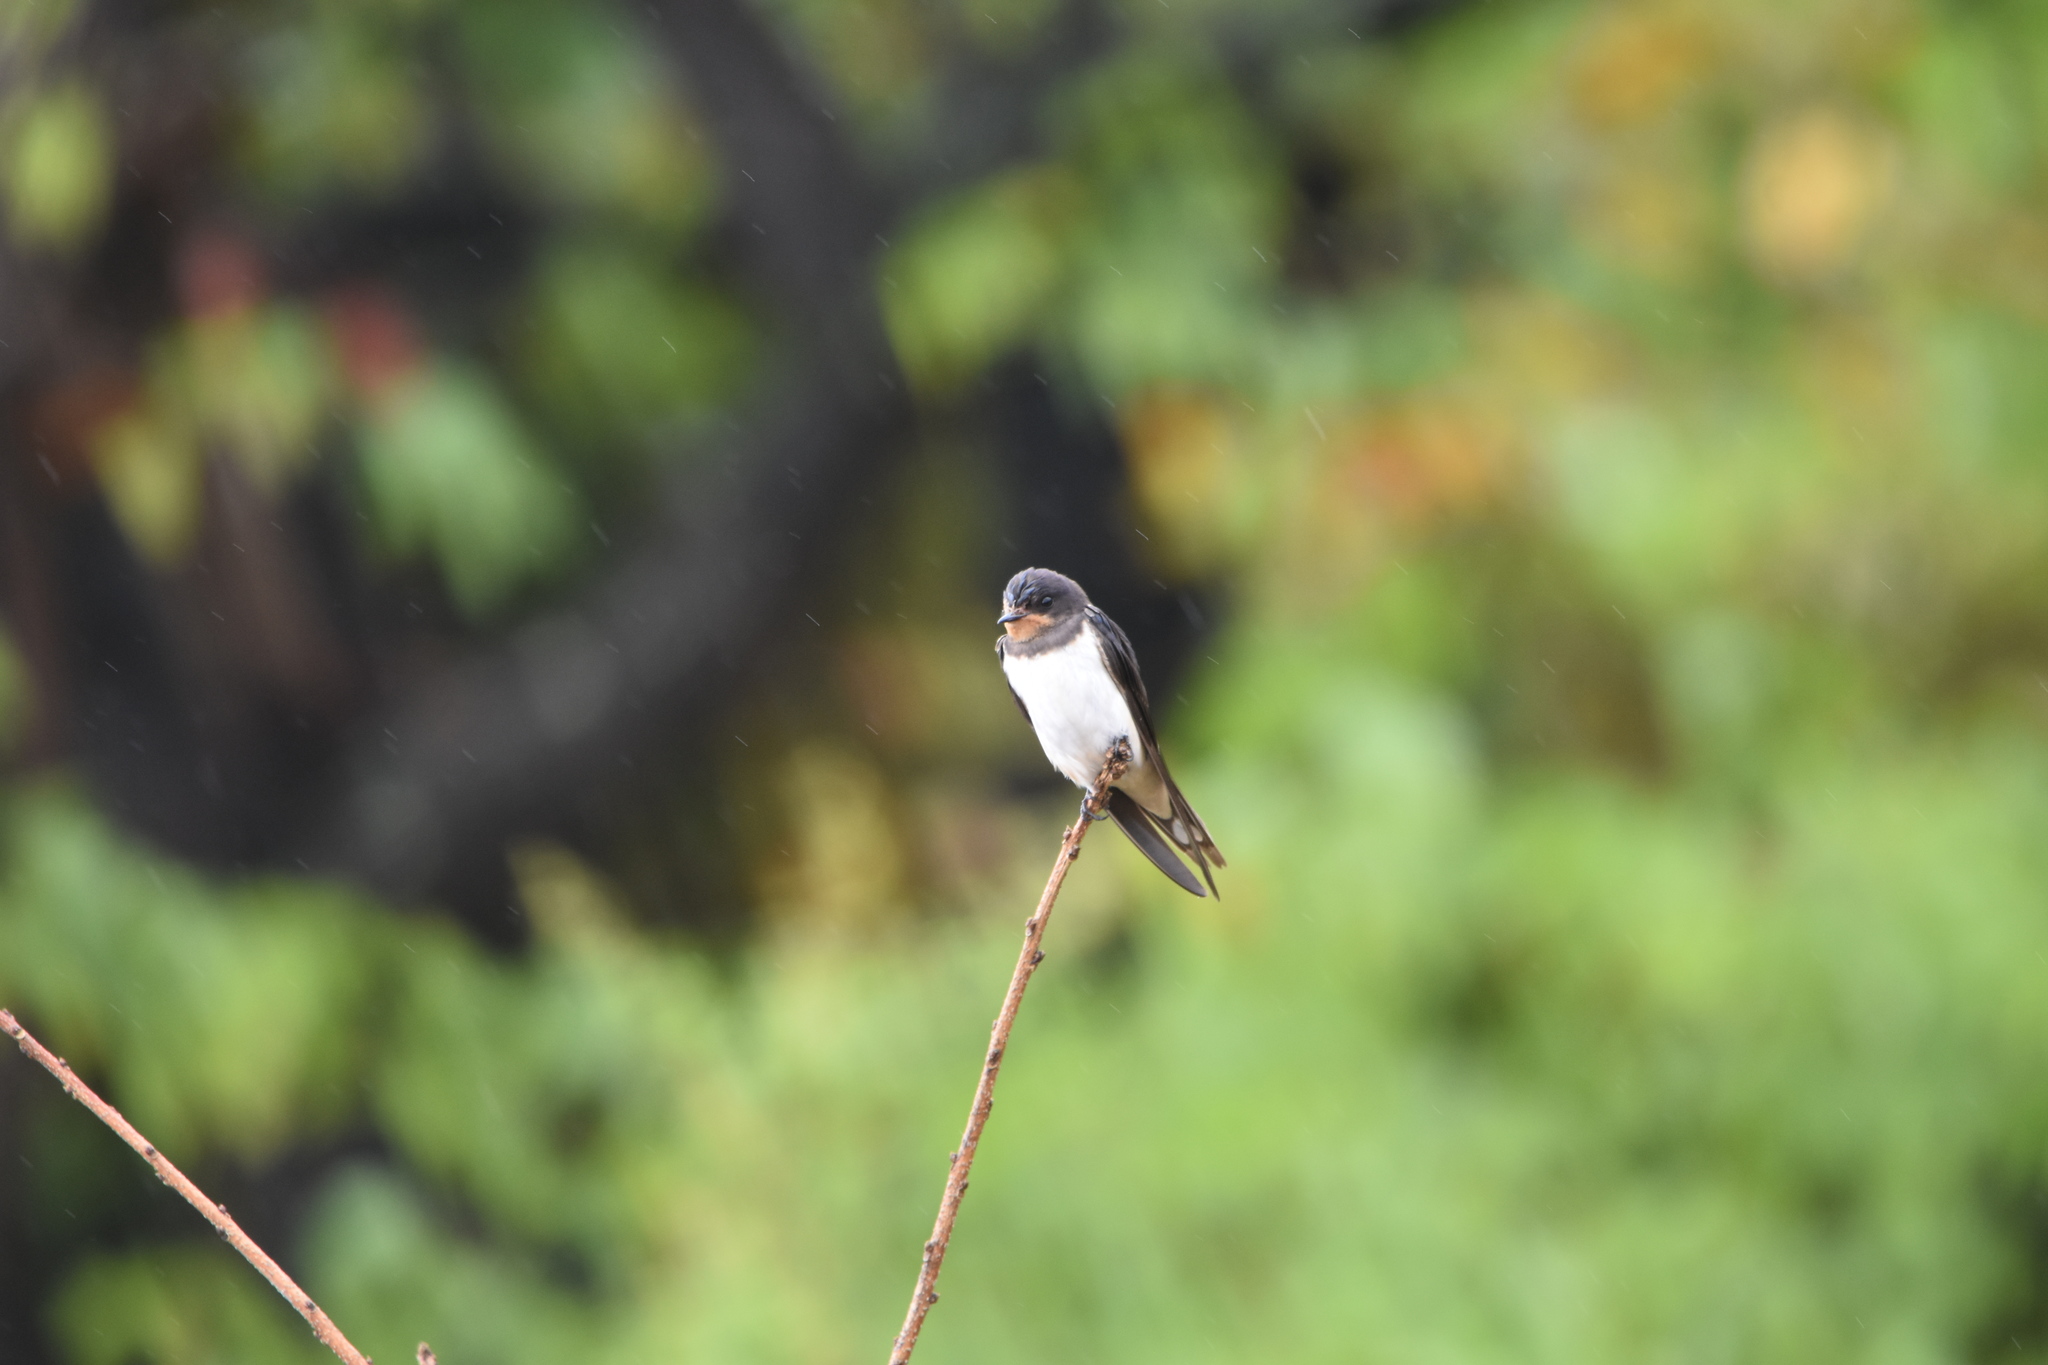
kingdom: Animalia
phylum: Chordata
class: Aves
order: Passeriformes
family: Hirundinidae
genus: Hirundo
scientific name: Hirundo rustica
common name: Barn swallow
